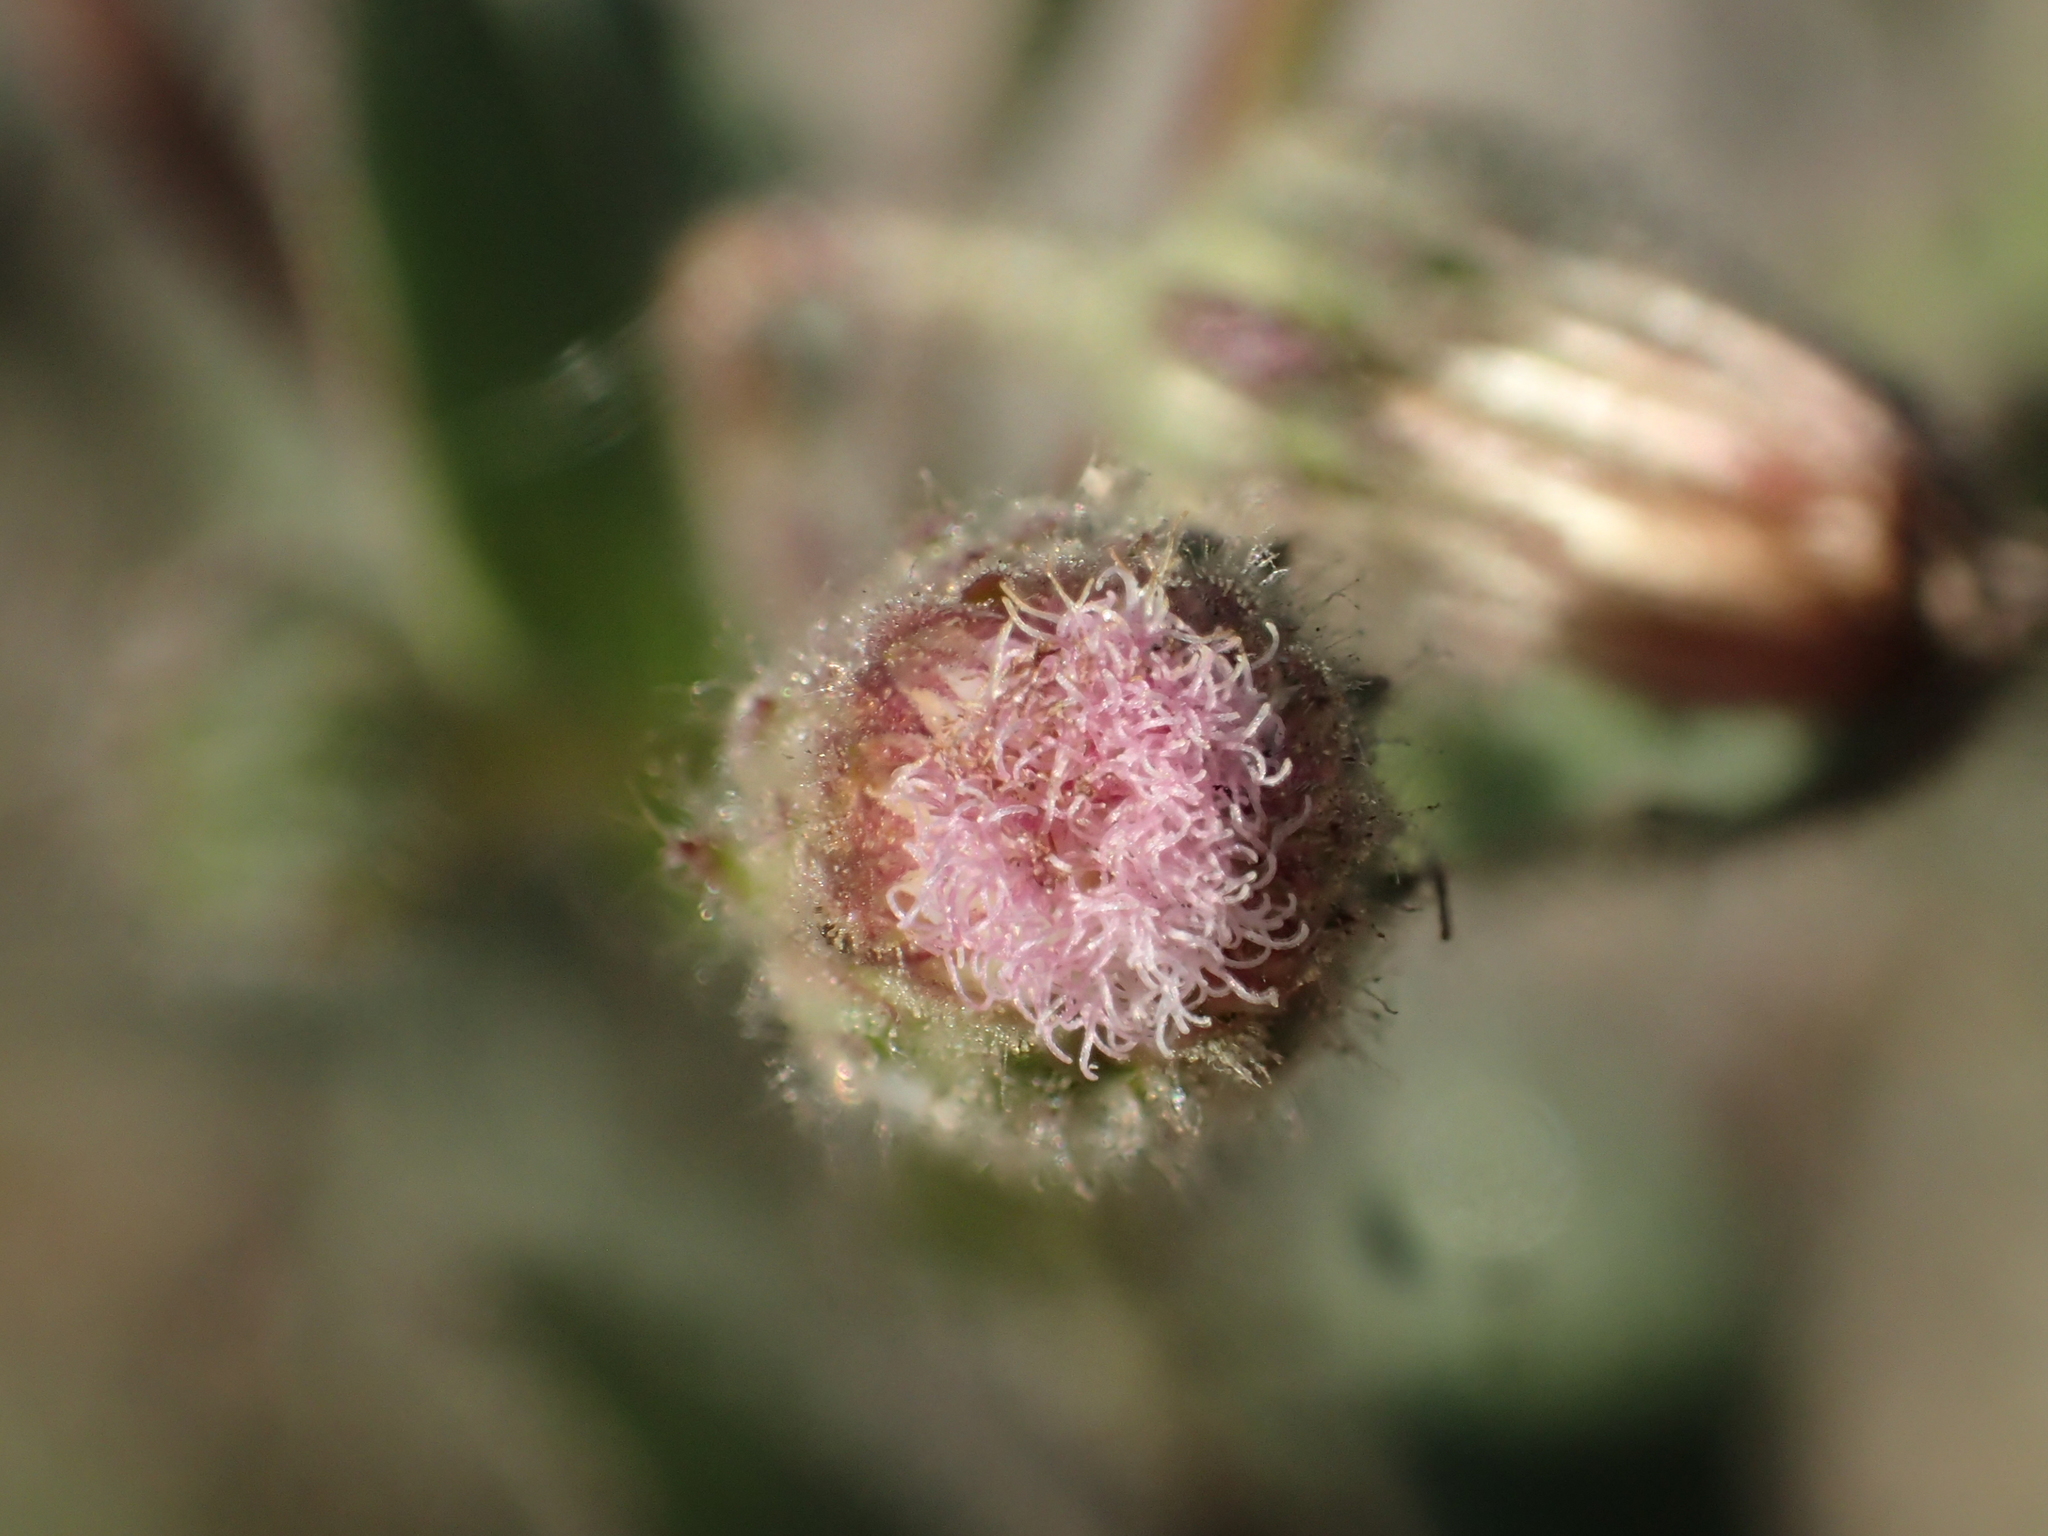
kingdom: Plantae
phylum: Tracheophyta
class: Magnoliopsida
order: Asterales
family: Asteraceae
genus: Pseudoconyza
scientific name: Pseudoconyza viscosa
